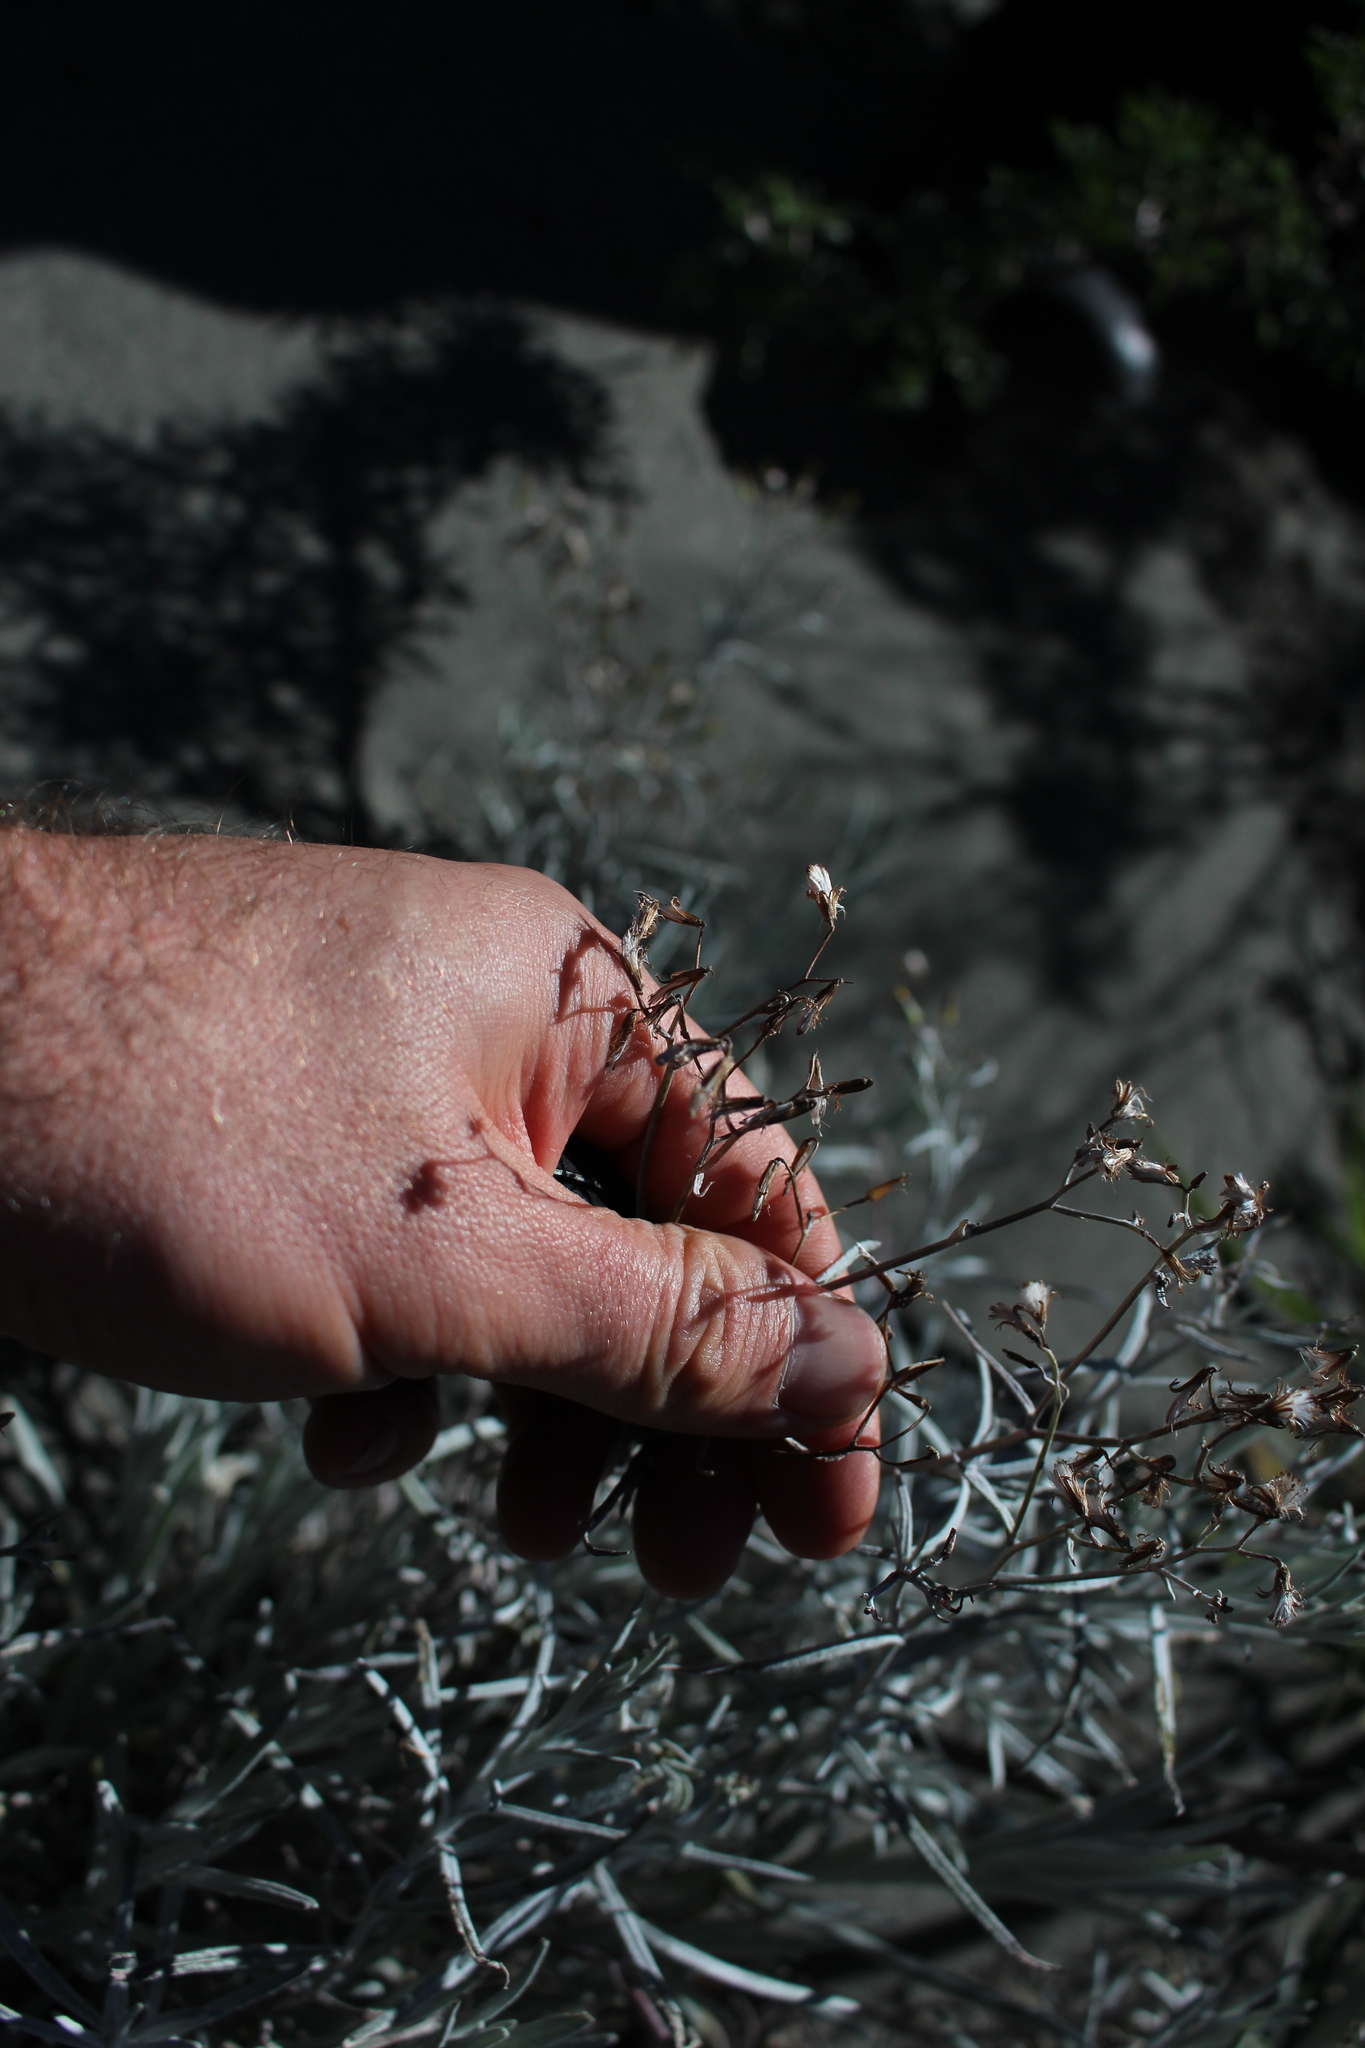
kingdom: Plantae
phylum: Tracheophyta
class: Magnoliopsida
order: Asterales
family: Asteraceae
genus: Senecio
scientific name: Senecio quadridentatus
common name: Cotton fireweed
